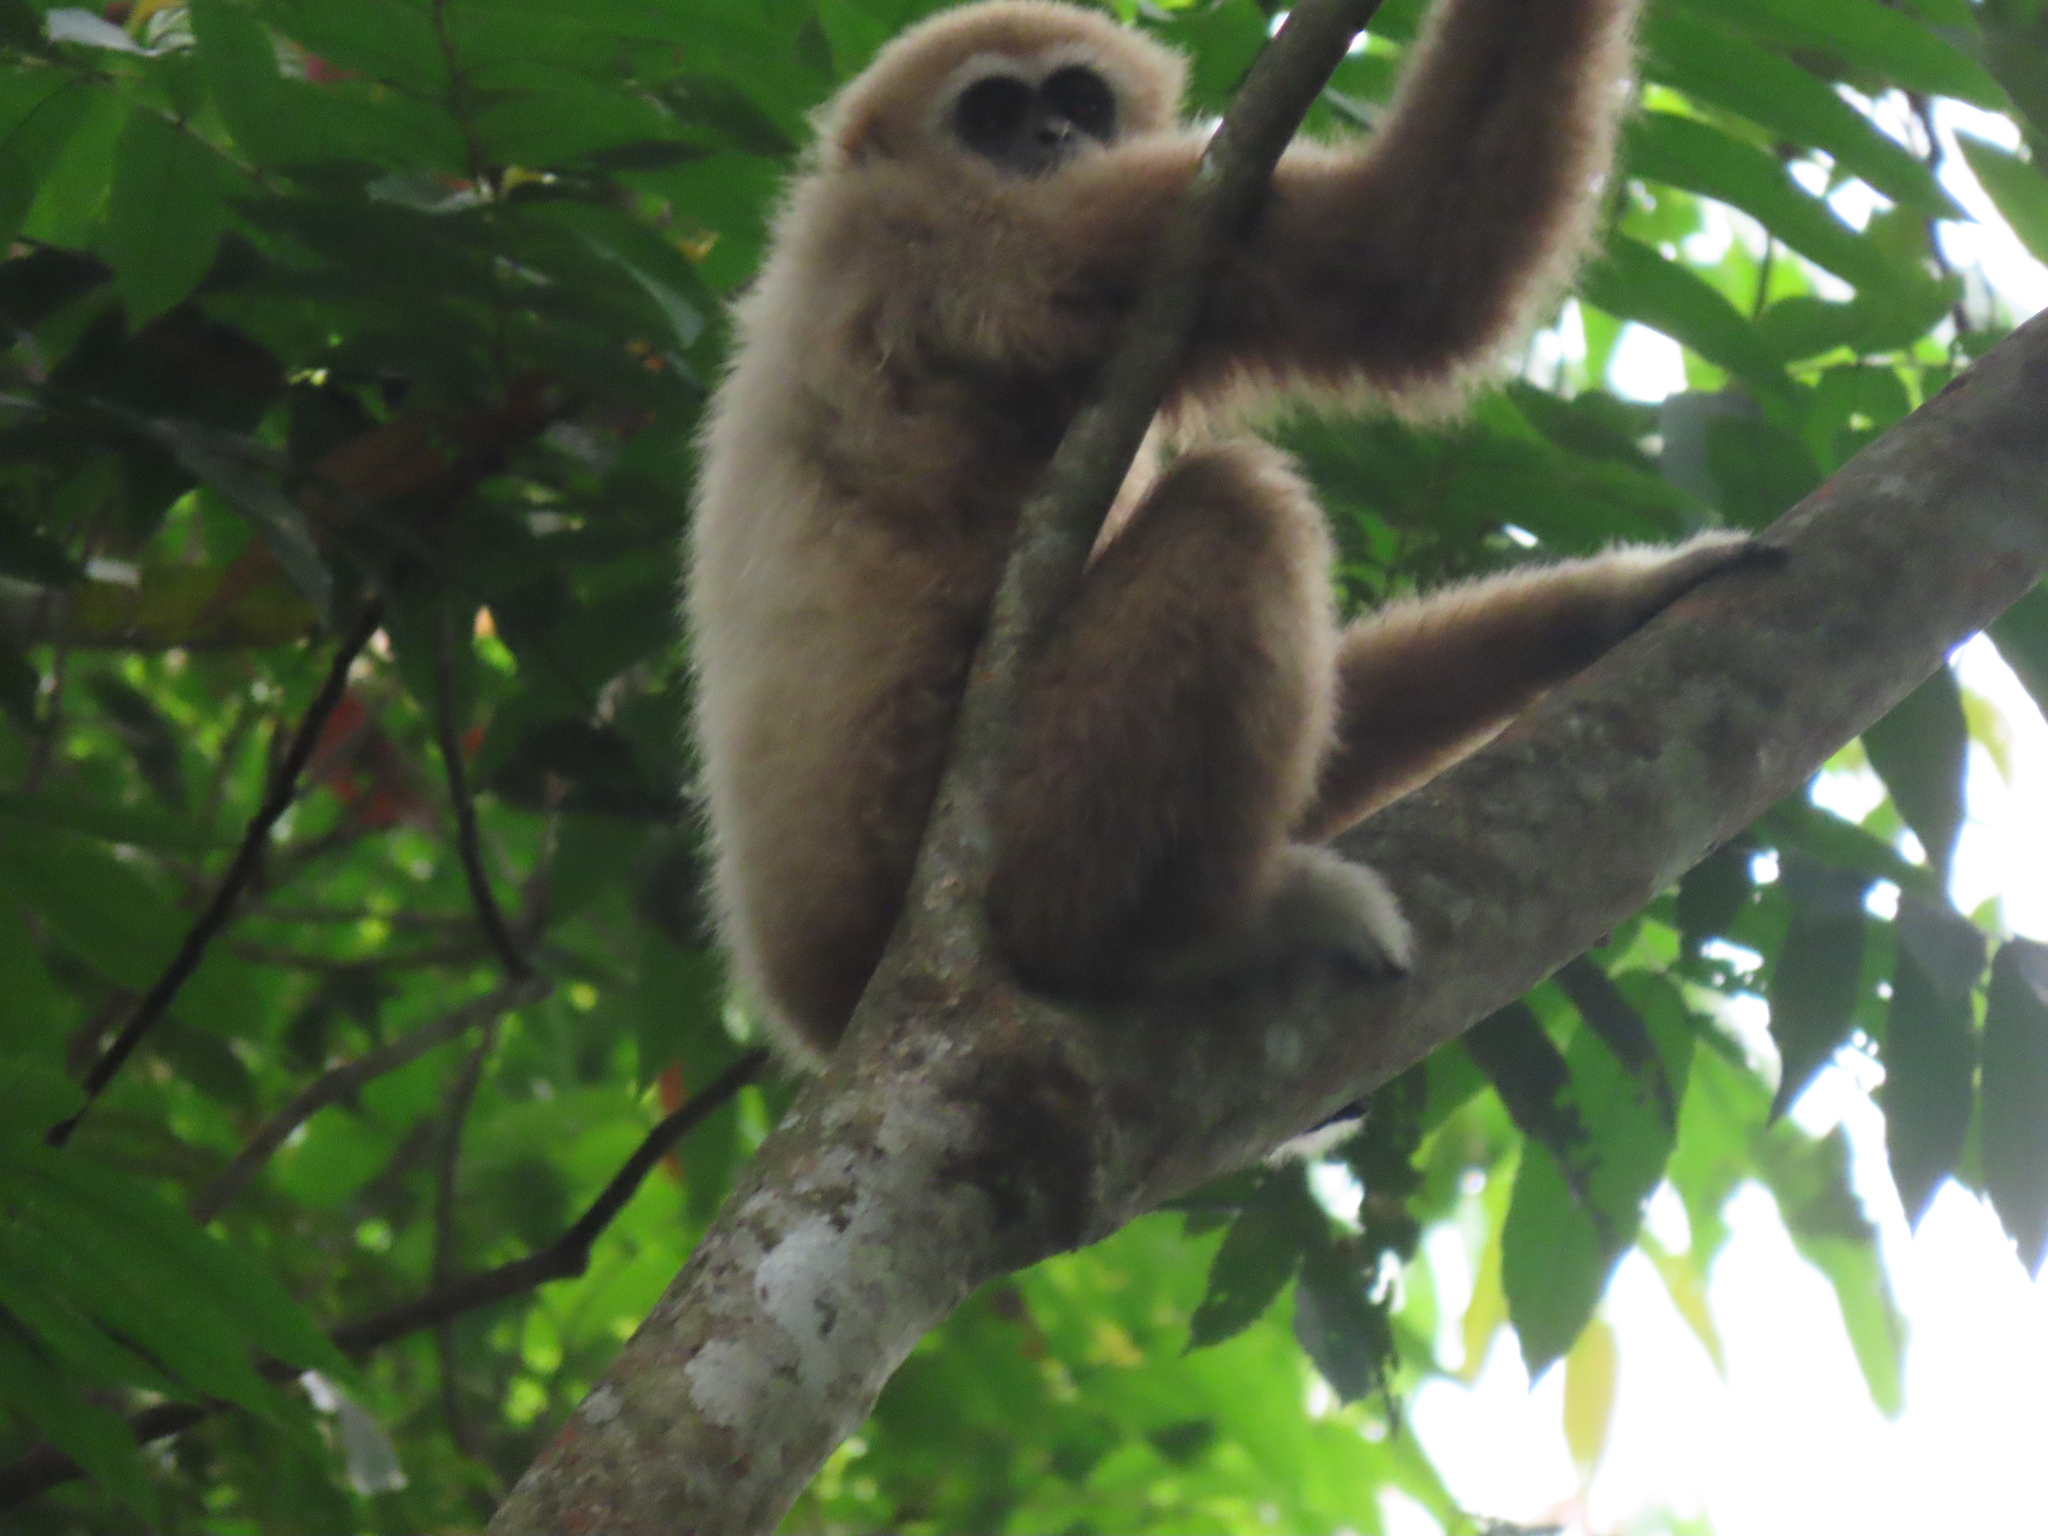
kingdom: Animalia
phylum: Chordata
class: Mammalia
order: Primates
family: Hylobatidae
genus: Hylobates
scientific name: Hylobates lar
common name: Lar gibbon
